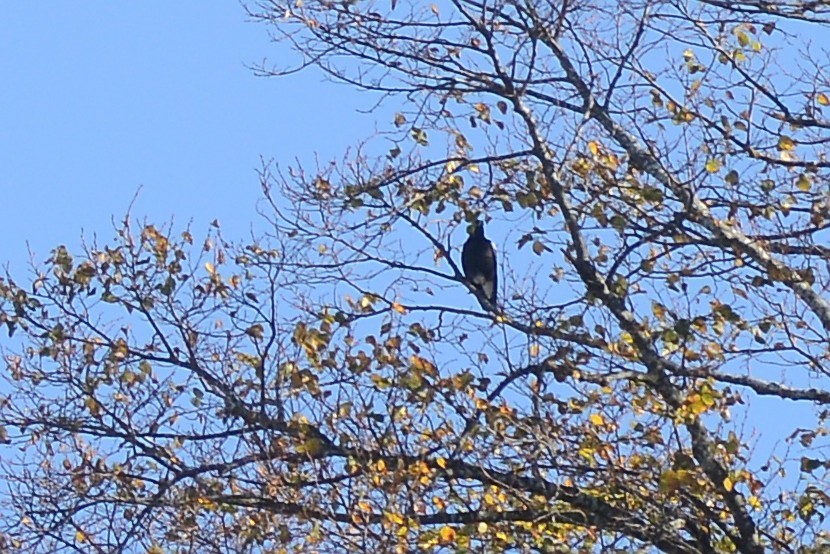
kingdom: Animalia
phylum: Chordata
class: Aves
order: Passeriformes
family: Cracticidae
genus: Gymnorhina
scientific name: Gymnorhina tibicen
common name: Australian magpie
